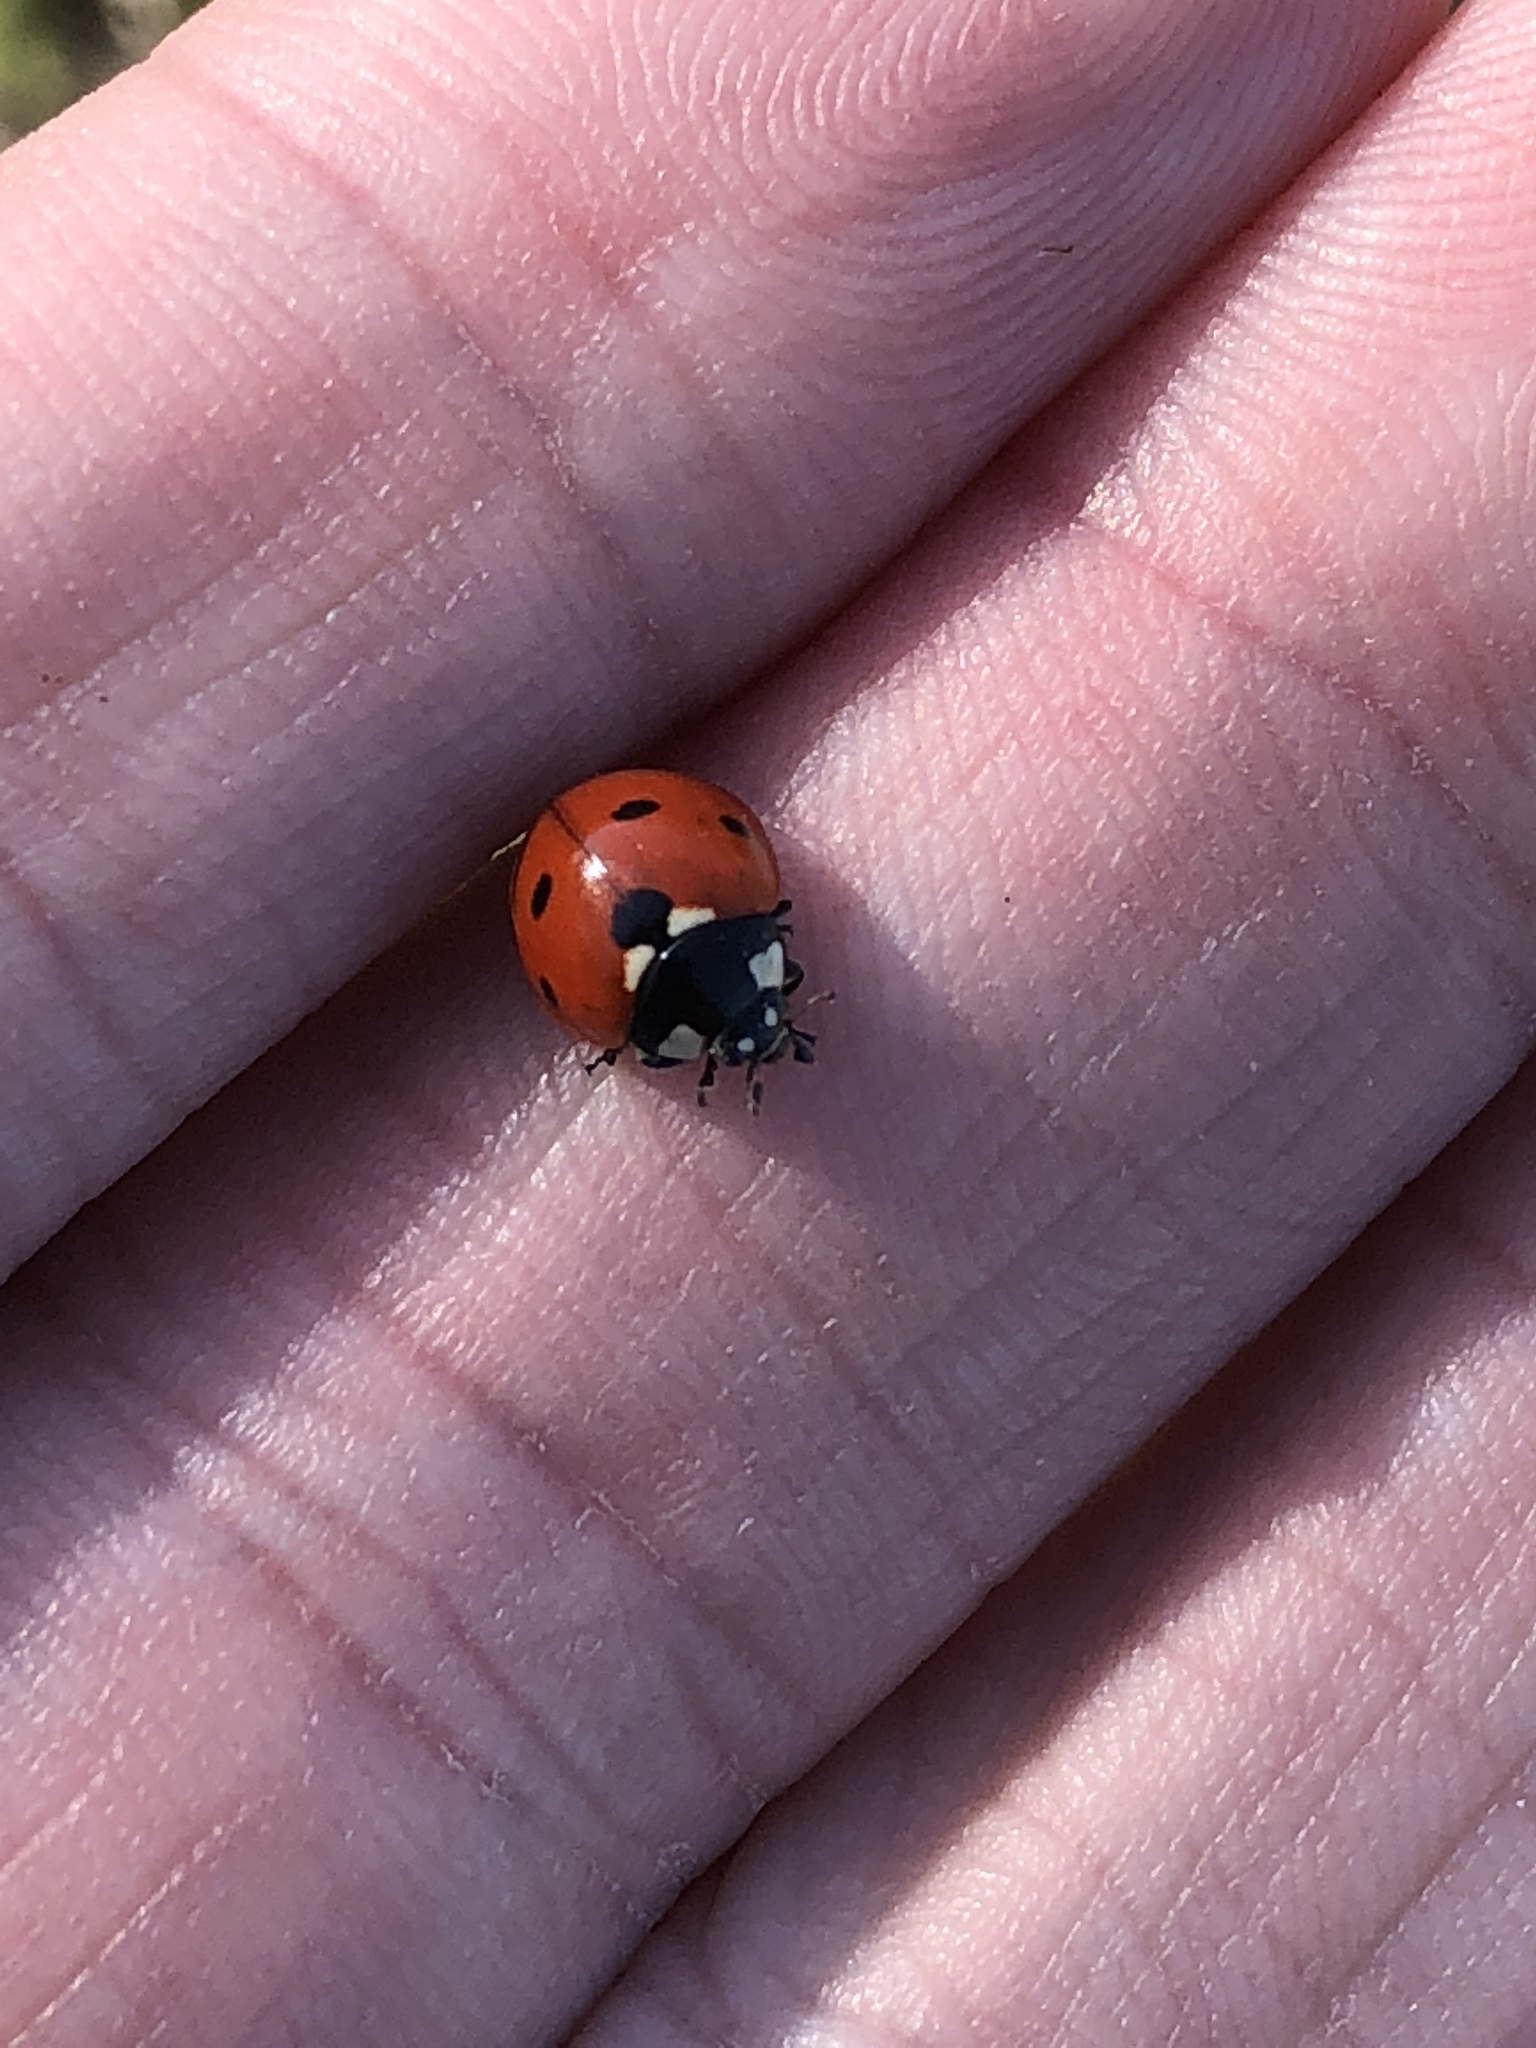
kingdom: Animalia
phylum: Arthropoda
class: Insecta
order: Coleoptera
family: Coccinellidae
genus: Coccinella
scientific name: Coccinella septempunctata
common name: Sevenspotted lady beetle
